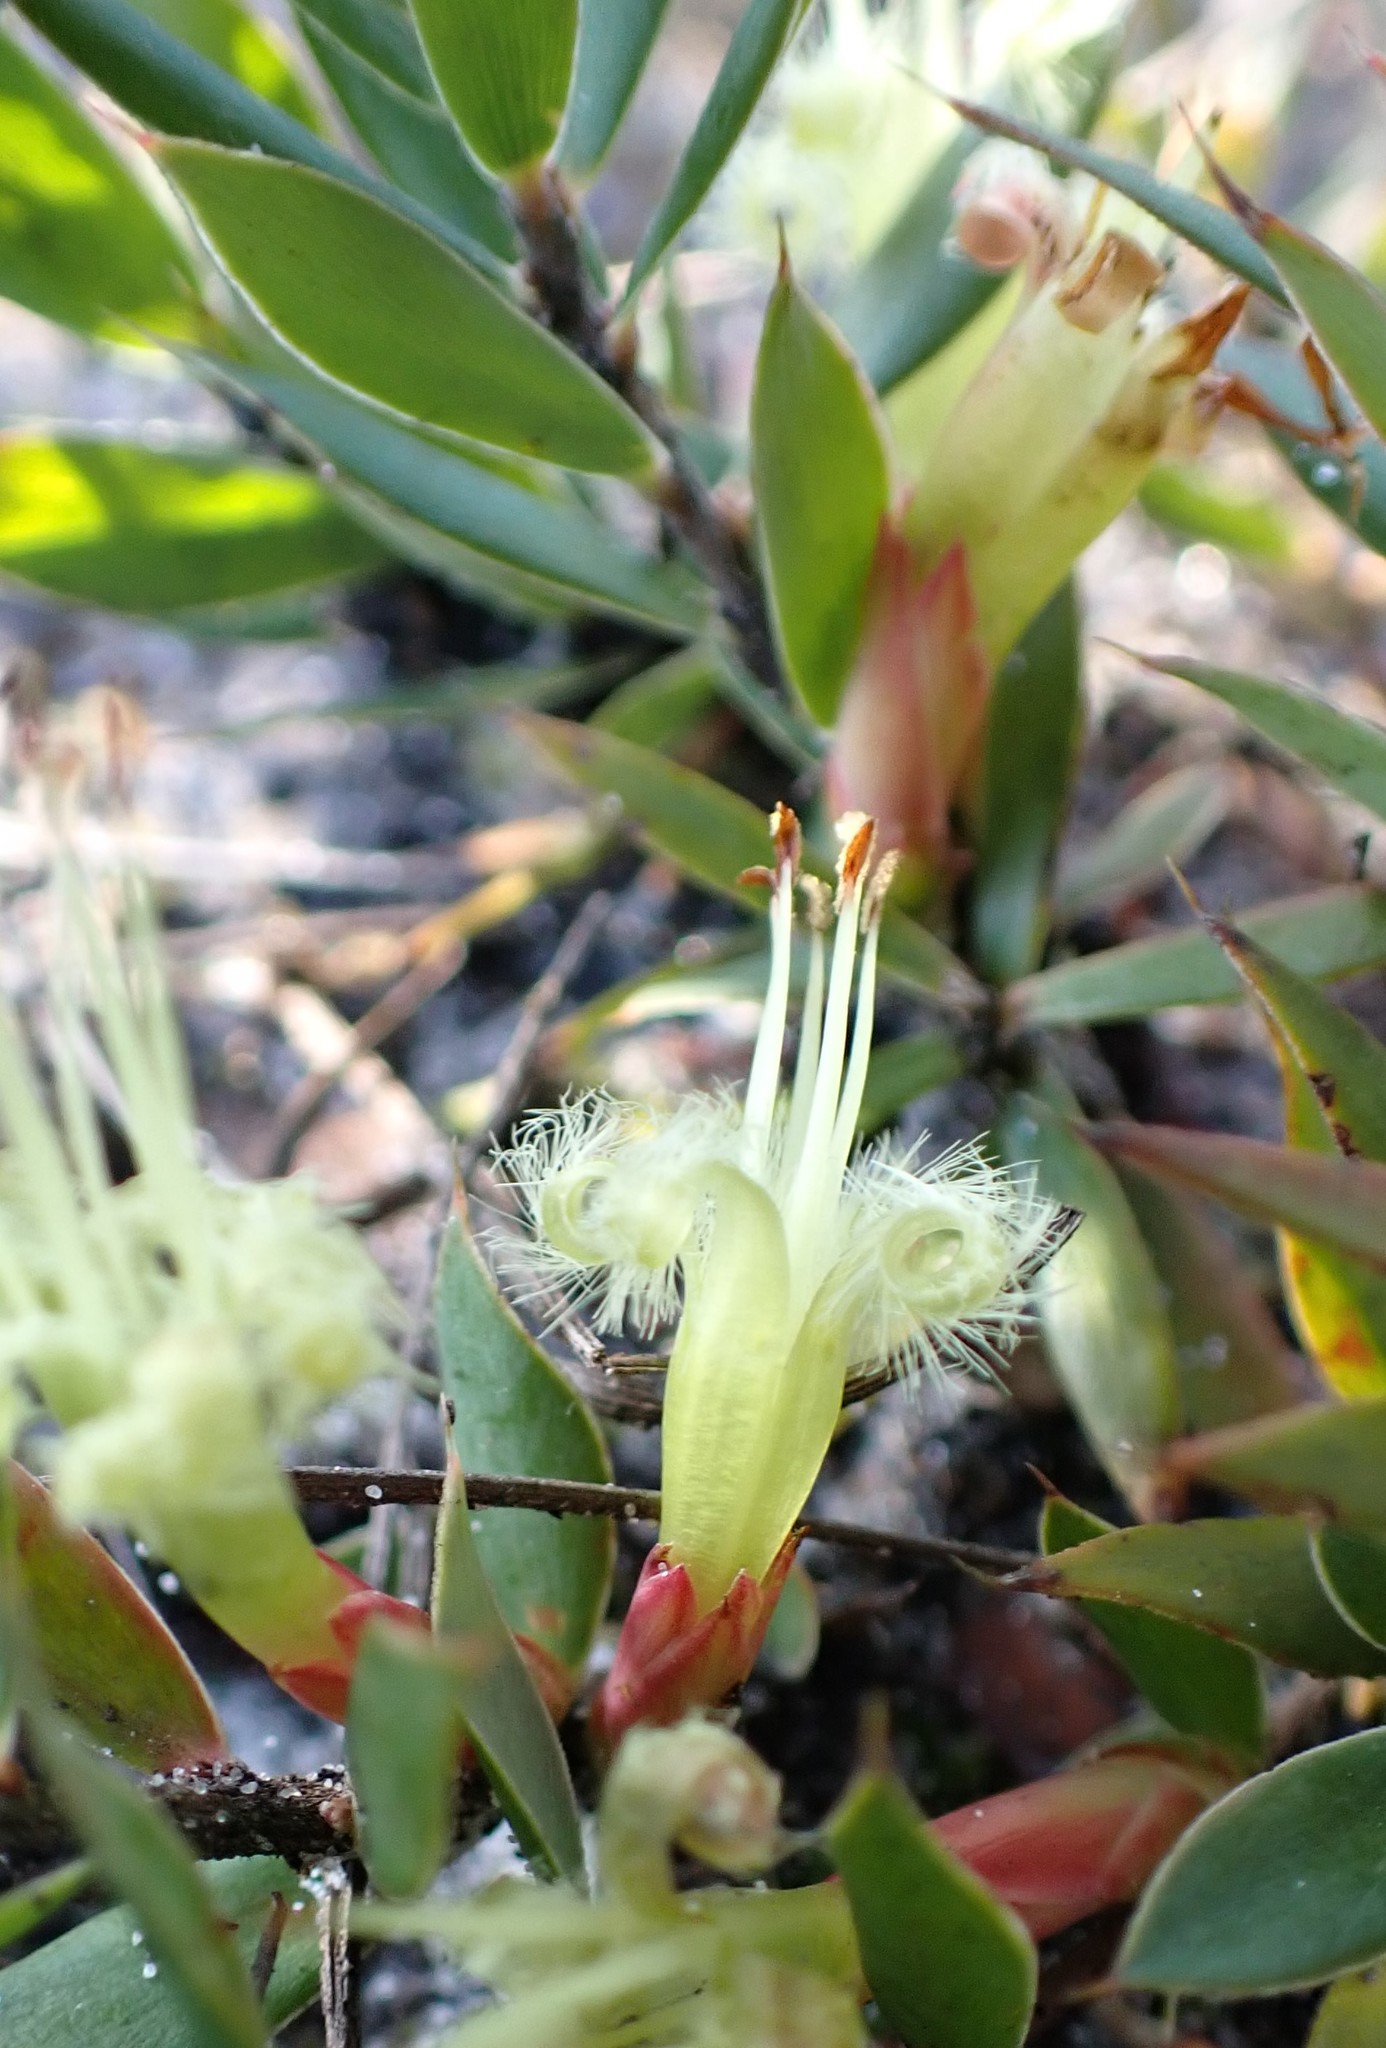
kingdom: Plantae
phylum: Tracheophyta
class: Magnoliopsida
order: Ericales
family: Ericaceae
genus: Styphelia
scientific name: Styphelia adscendens
